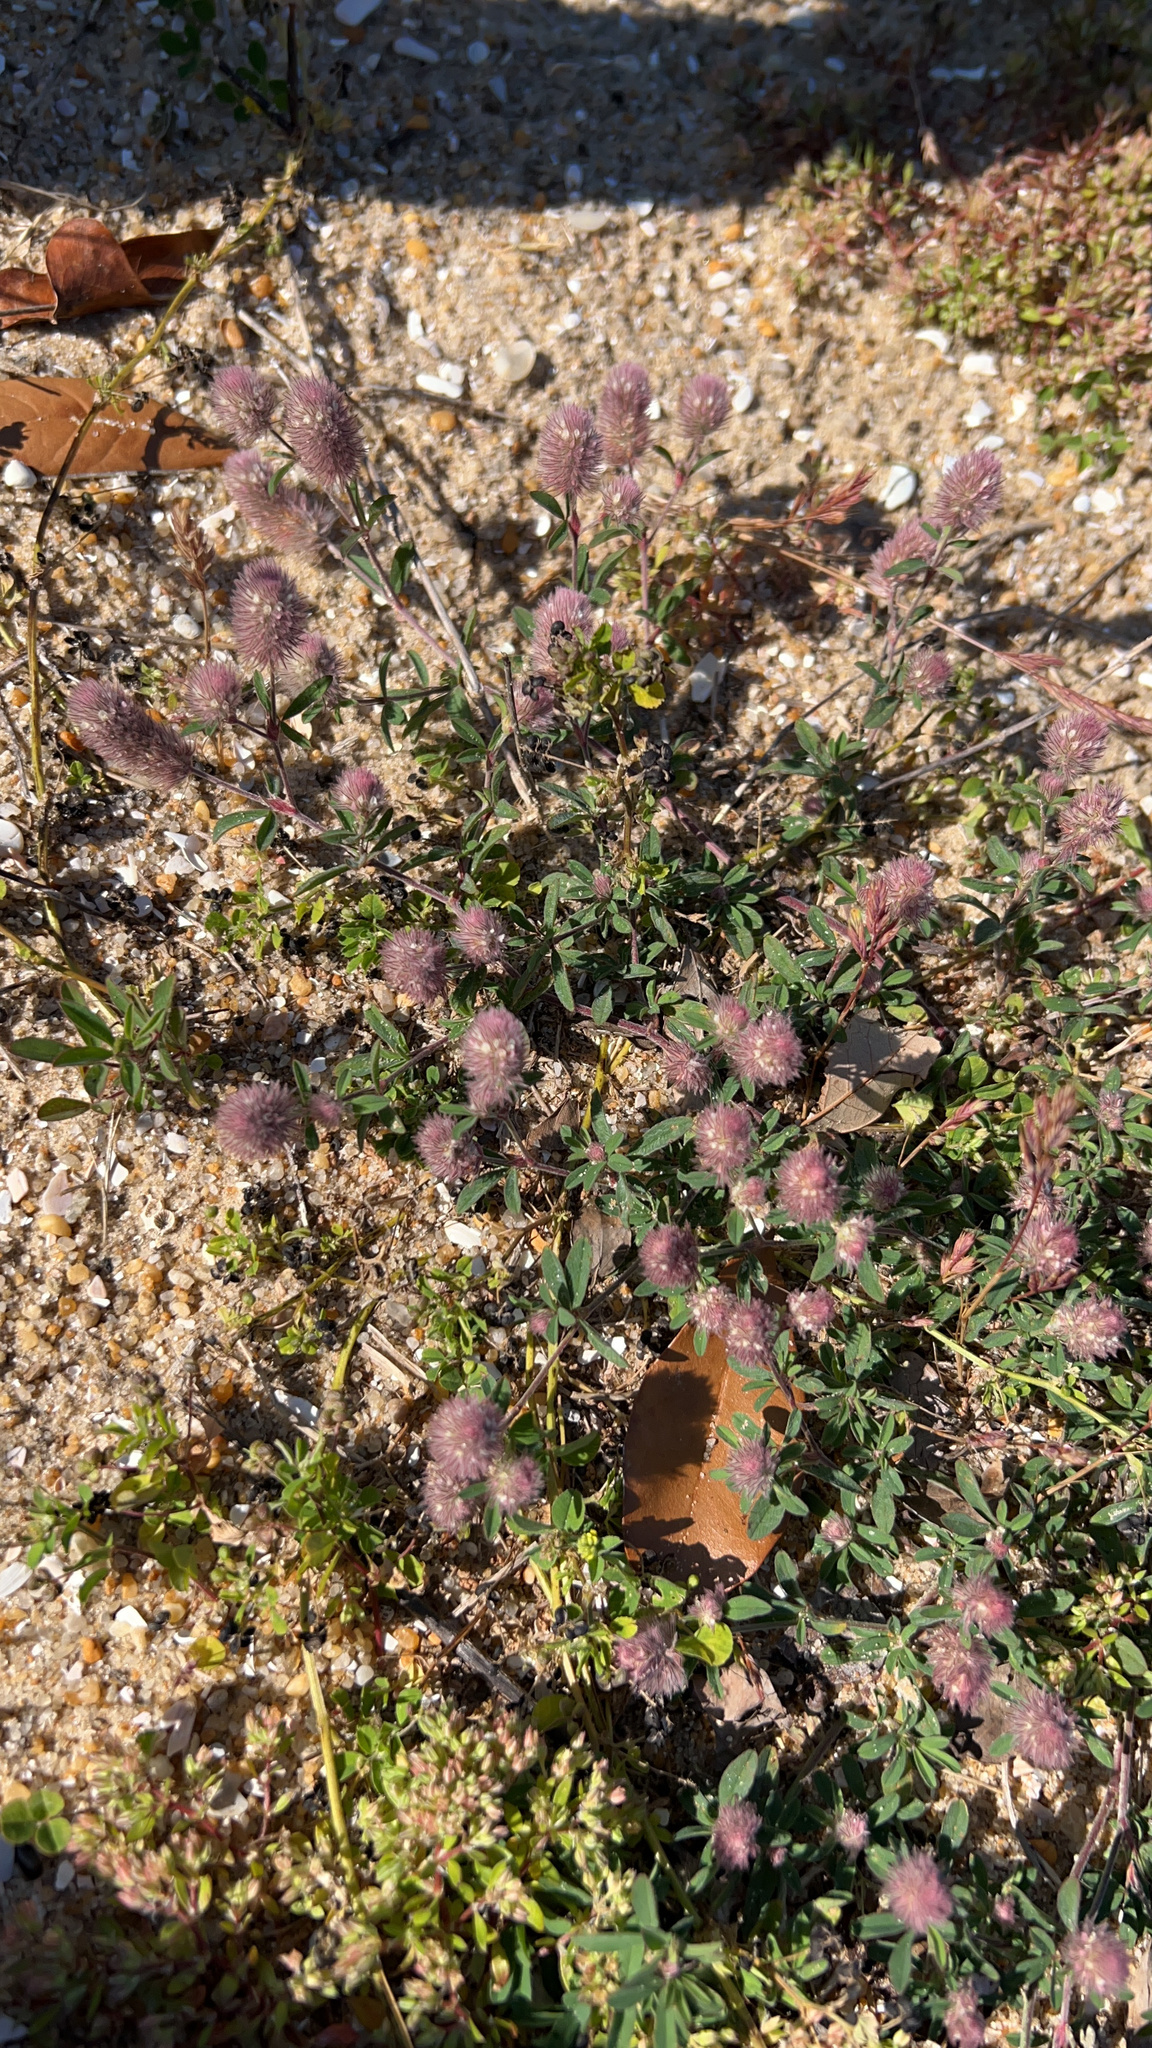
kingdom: Plantae
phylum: Tracheophyta
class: Magnoliopsida
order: Fabales
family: Fabaceae
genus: Trifolium
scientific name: Trifolium arvense
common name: Hare's-foot clover
